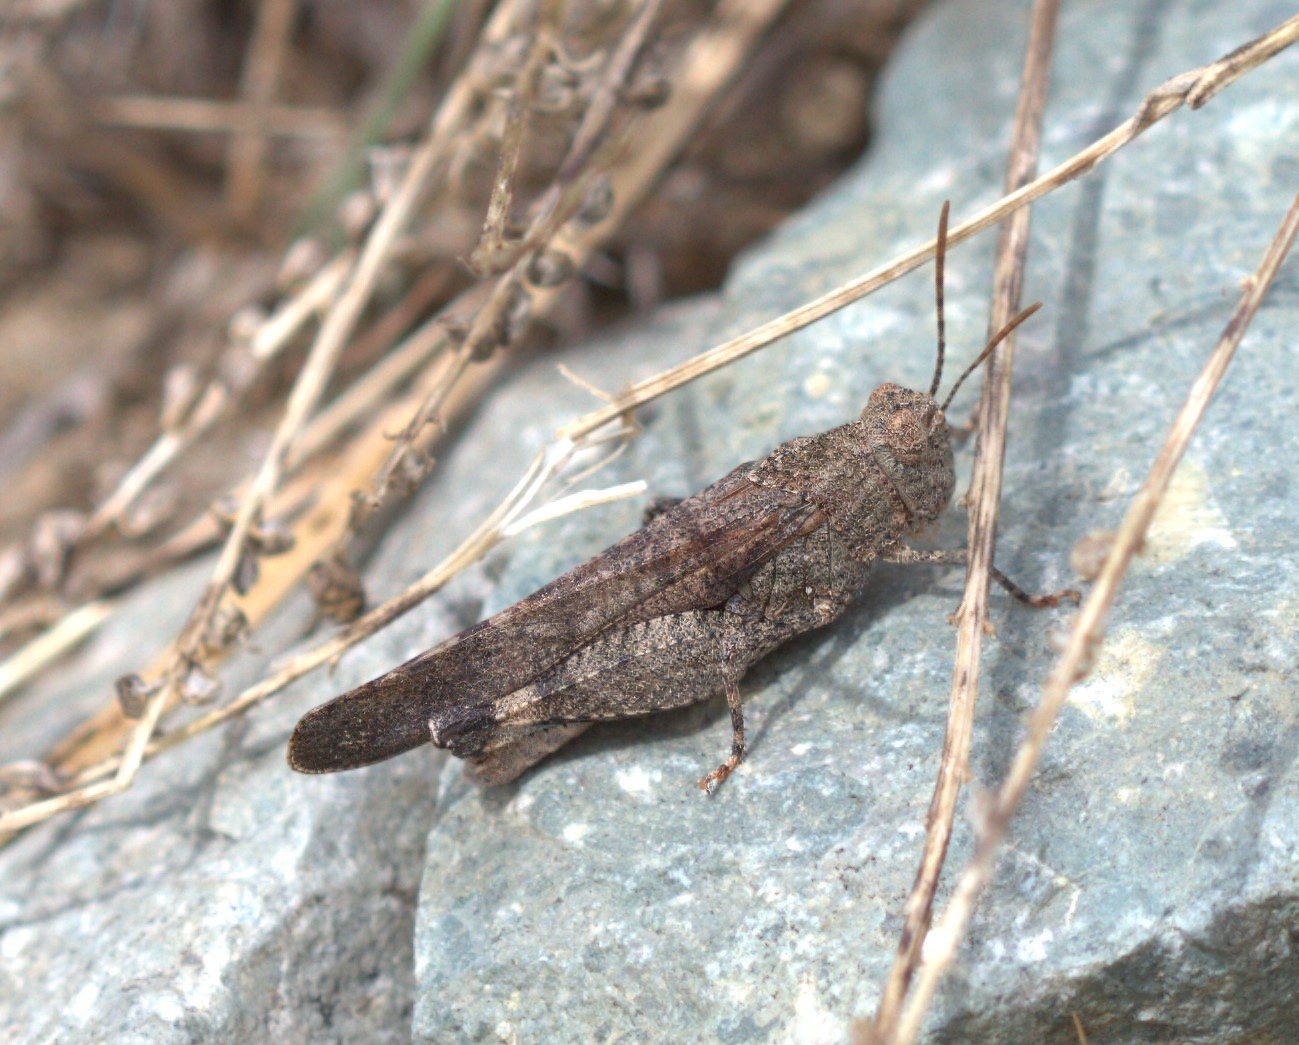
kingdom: Animalia
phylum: Arthropoda
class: Insecta
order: Orthoptera
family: Acrididae
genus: Lactista
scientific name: Lactista gibbosus
